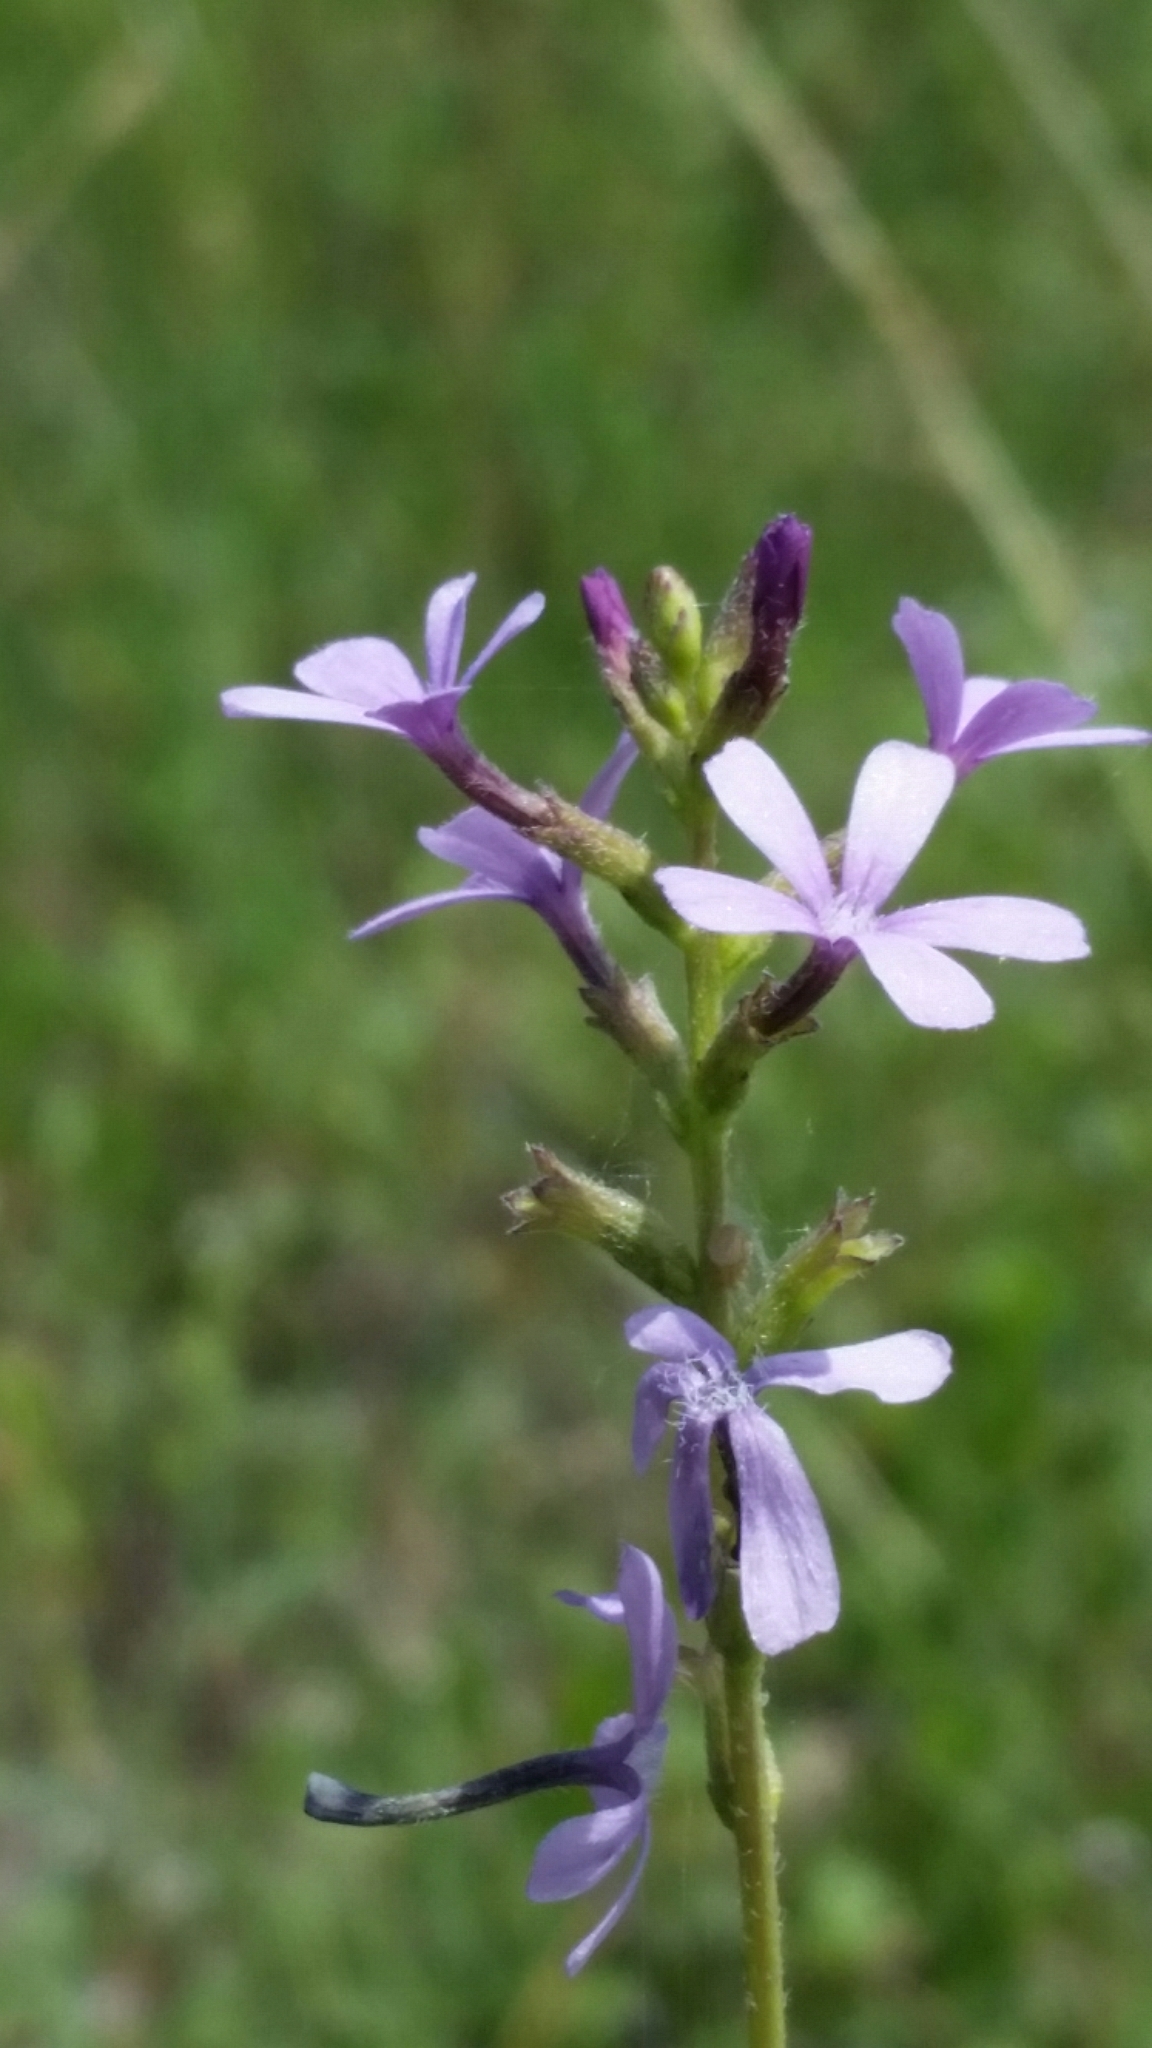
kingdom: Plantae
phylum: Tracheophyta
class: Magnoliopsida
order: Lamiales
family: Orobanchaceae
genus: Buchnera
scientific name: Buchnera floridana
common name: Florida bluehearts
